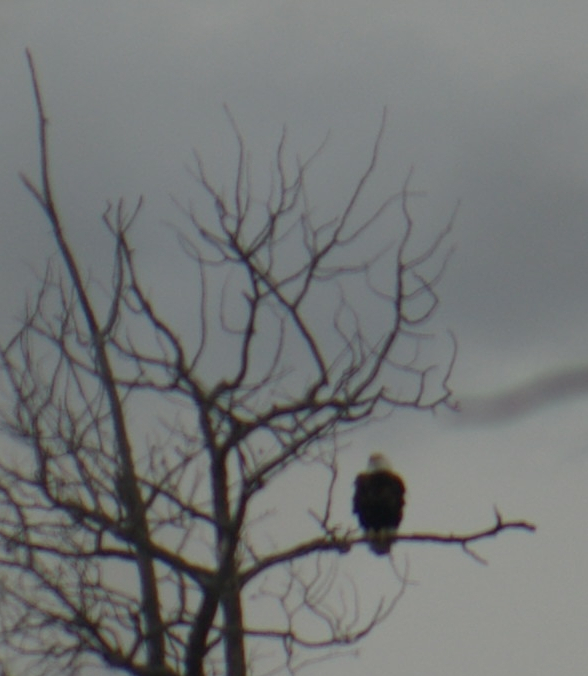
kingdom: Animalia
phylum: Chordata
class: Aves
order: Accipitriformes
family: Accipitridae
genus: Haliaeetus
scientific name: Haliaeetus leucocephalus
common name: Bald eagle
